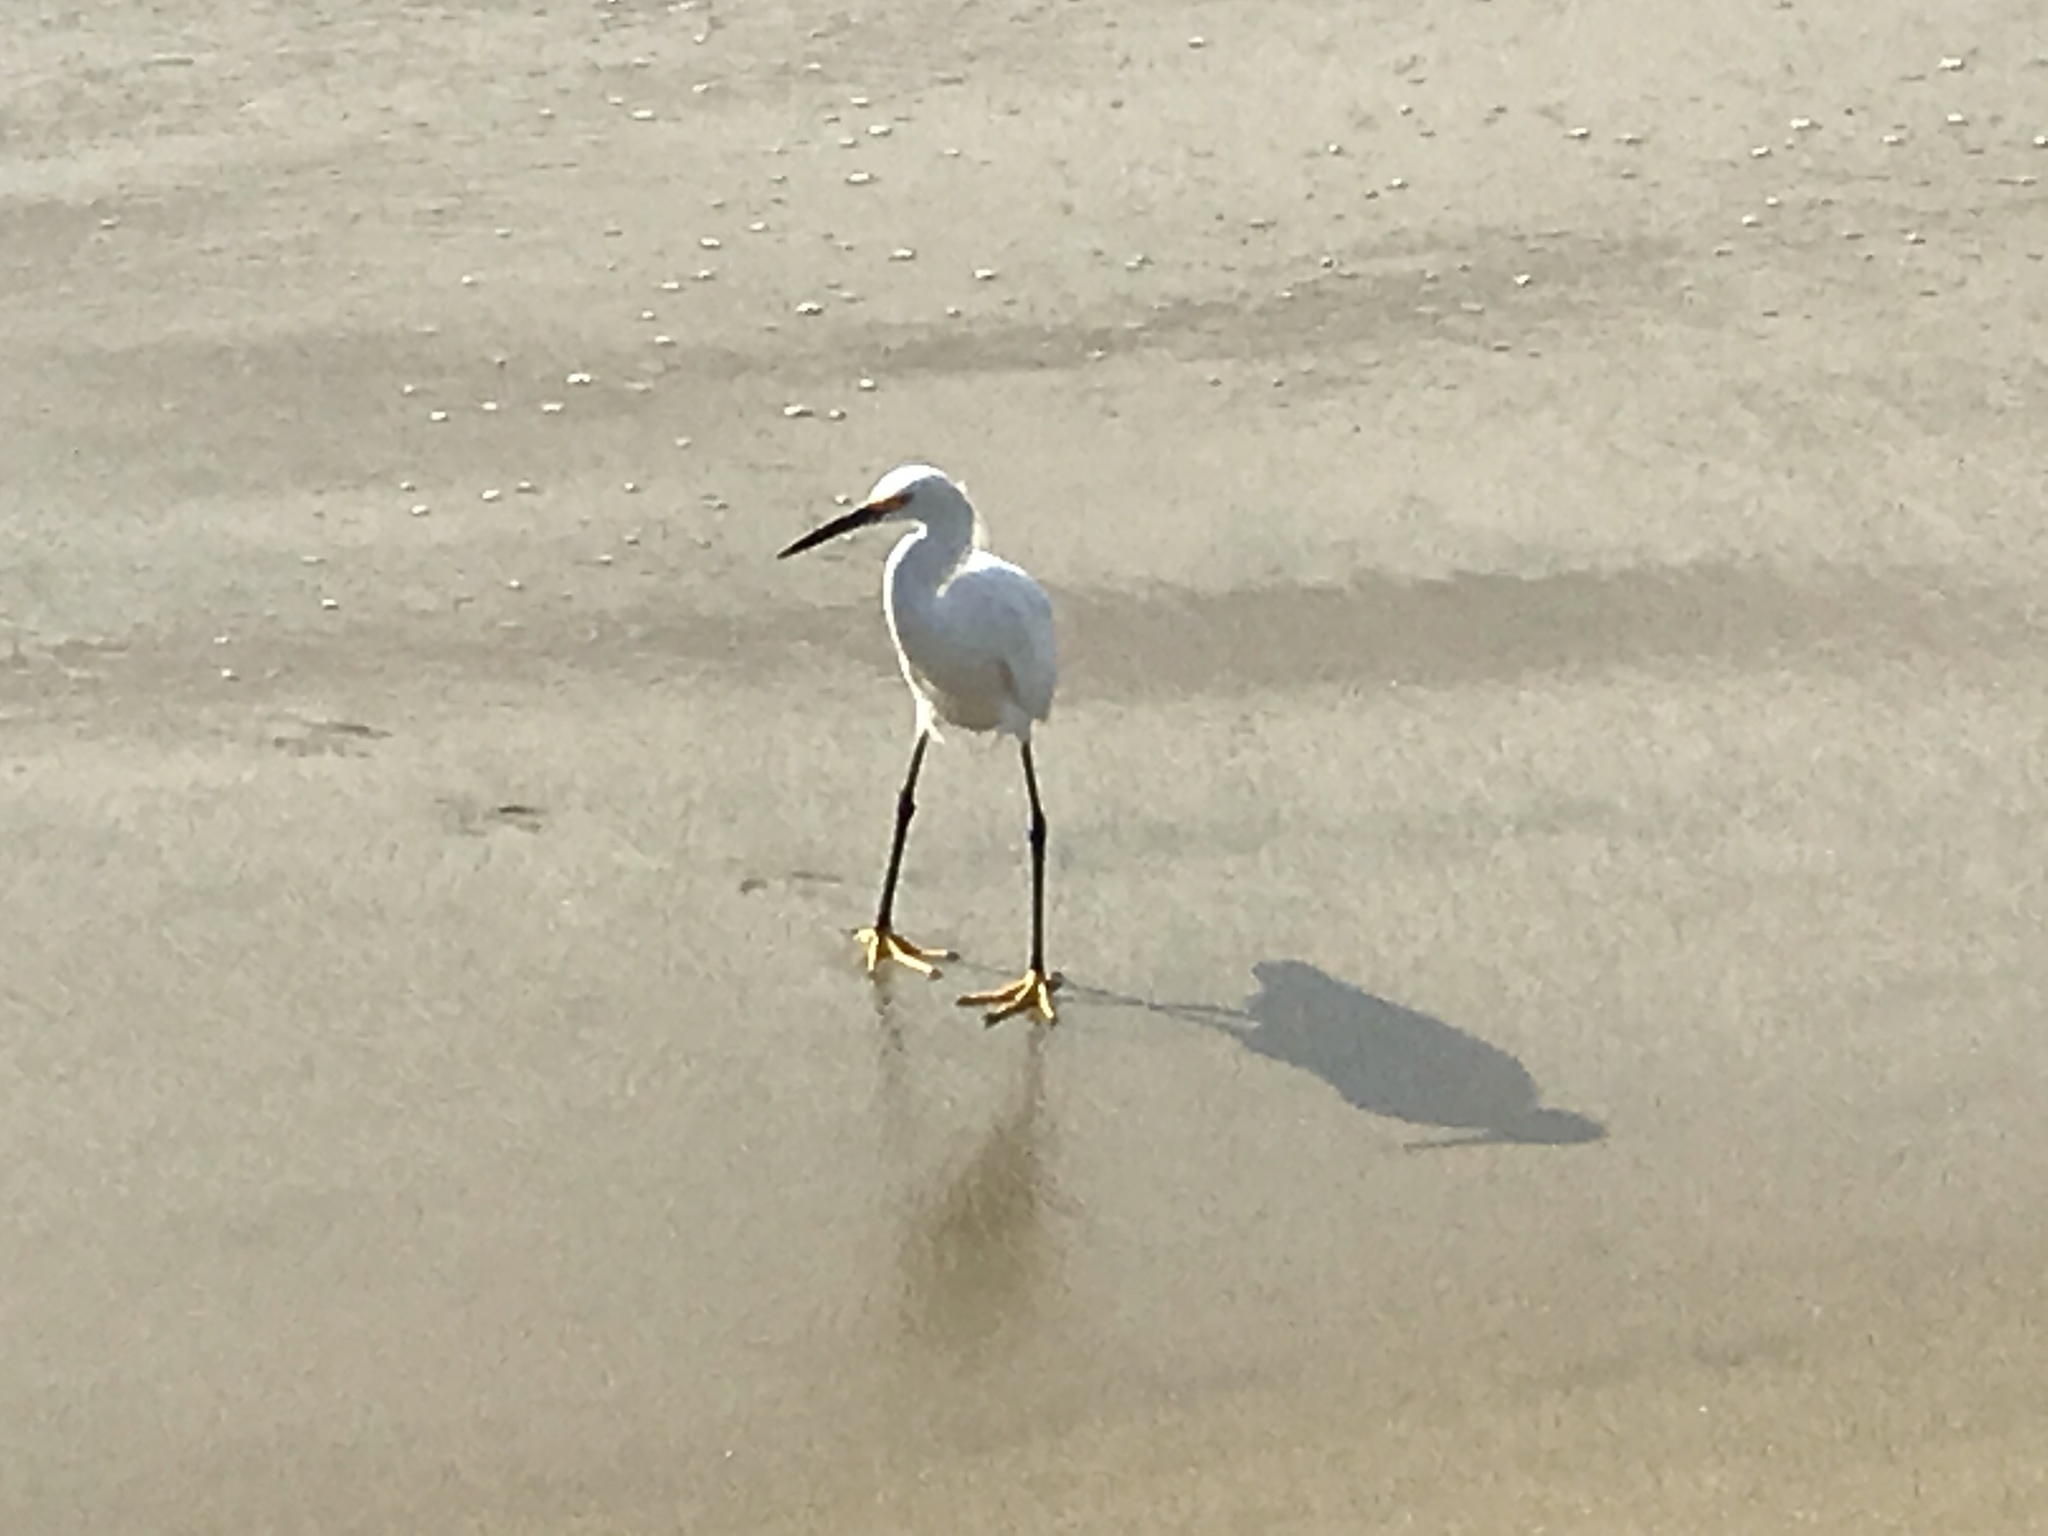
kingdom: Animalia
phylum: Chordata
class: Aves
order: Pelecaniformes
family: Ardeidae
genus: Egretta
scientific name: Egretta thula
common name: Snowy egret
